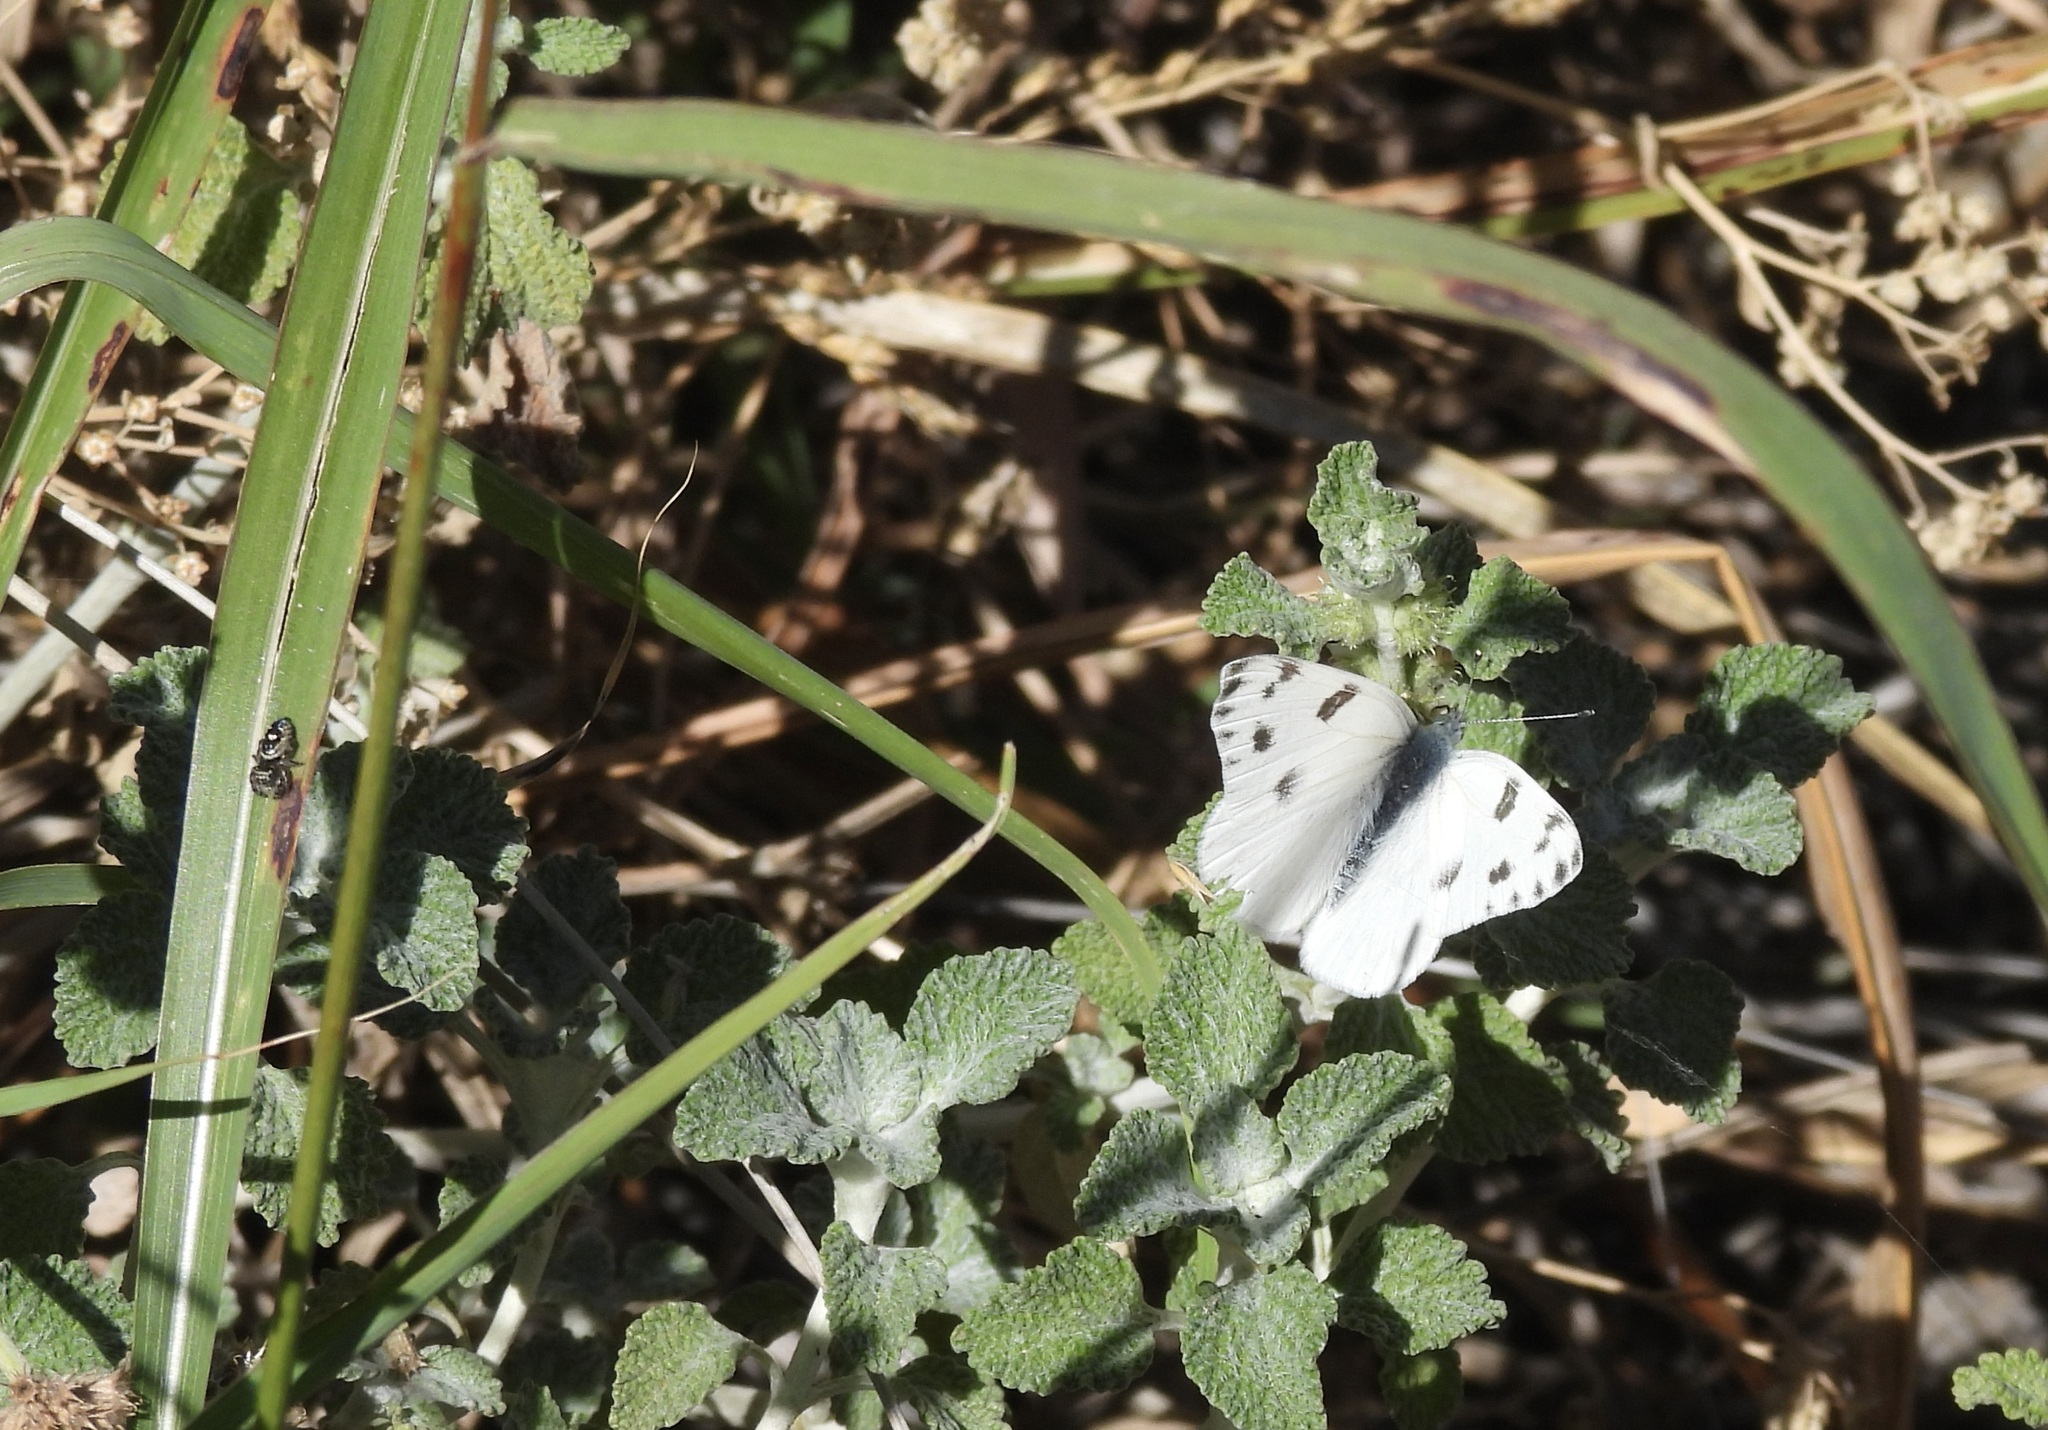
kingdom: Animalia
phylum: Arthropoda
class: Insecta
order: Lepidoptera
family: Pieridae
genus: Pontia
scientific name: Pontia protodice
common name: Checkered white
